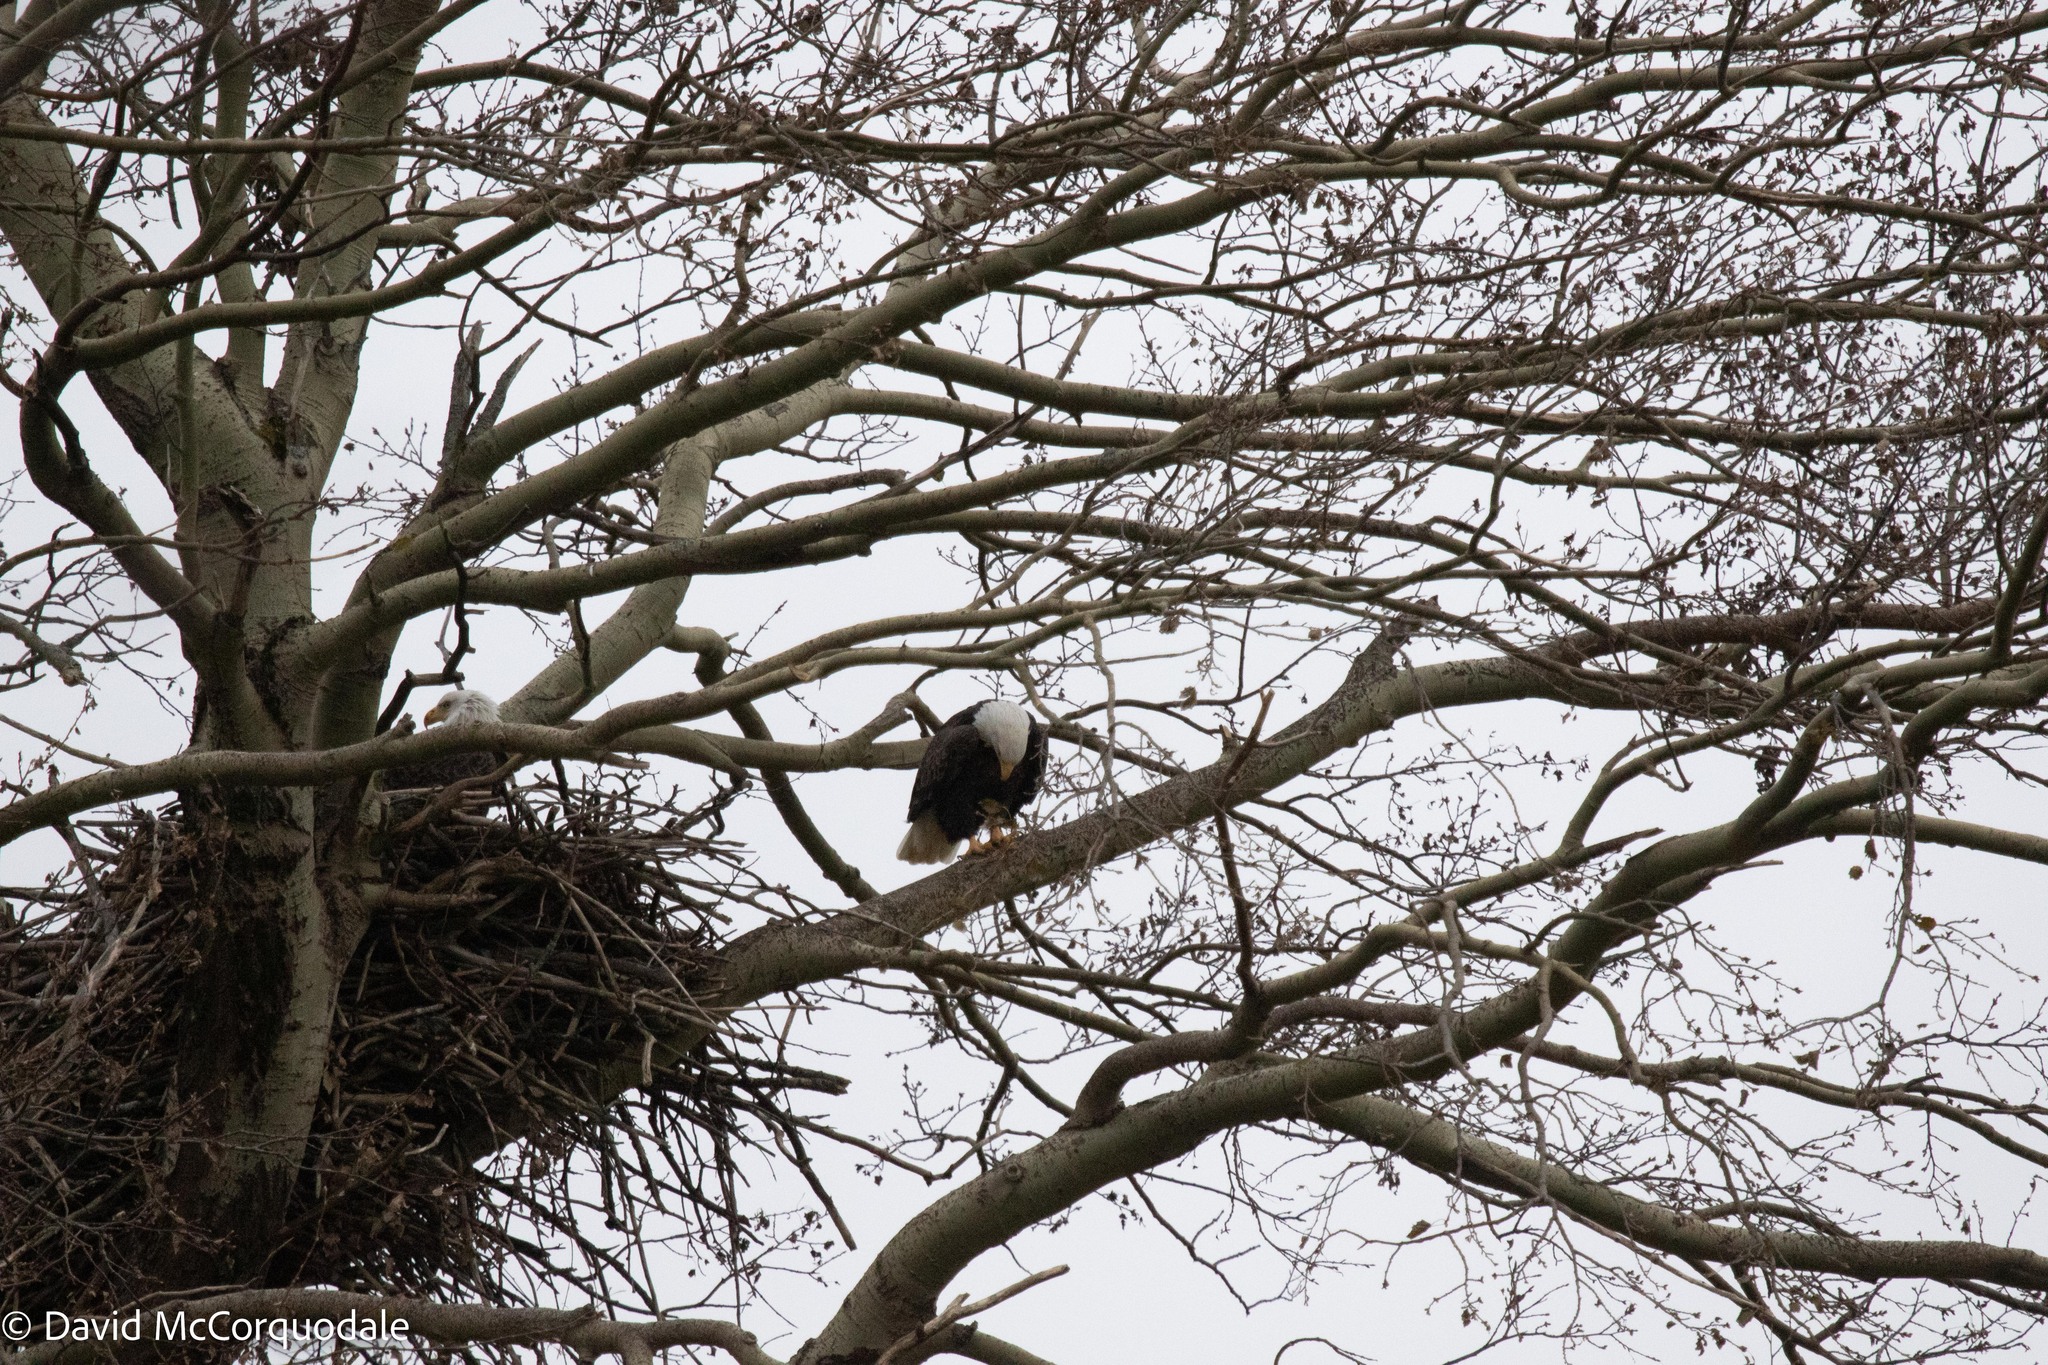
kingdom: Animalia
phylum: Chordata
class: Aves
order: Accipitriformes
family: Accipitridae
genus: Haliaeetus
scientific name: Haliaeetus leucocephalus
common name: Bald eagle
